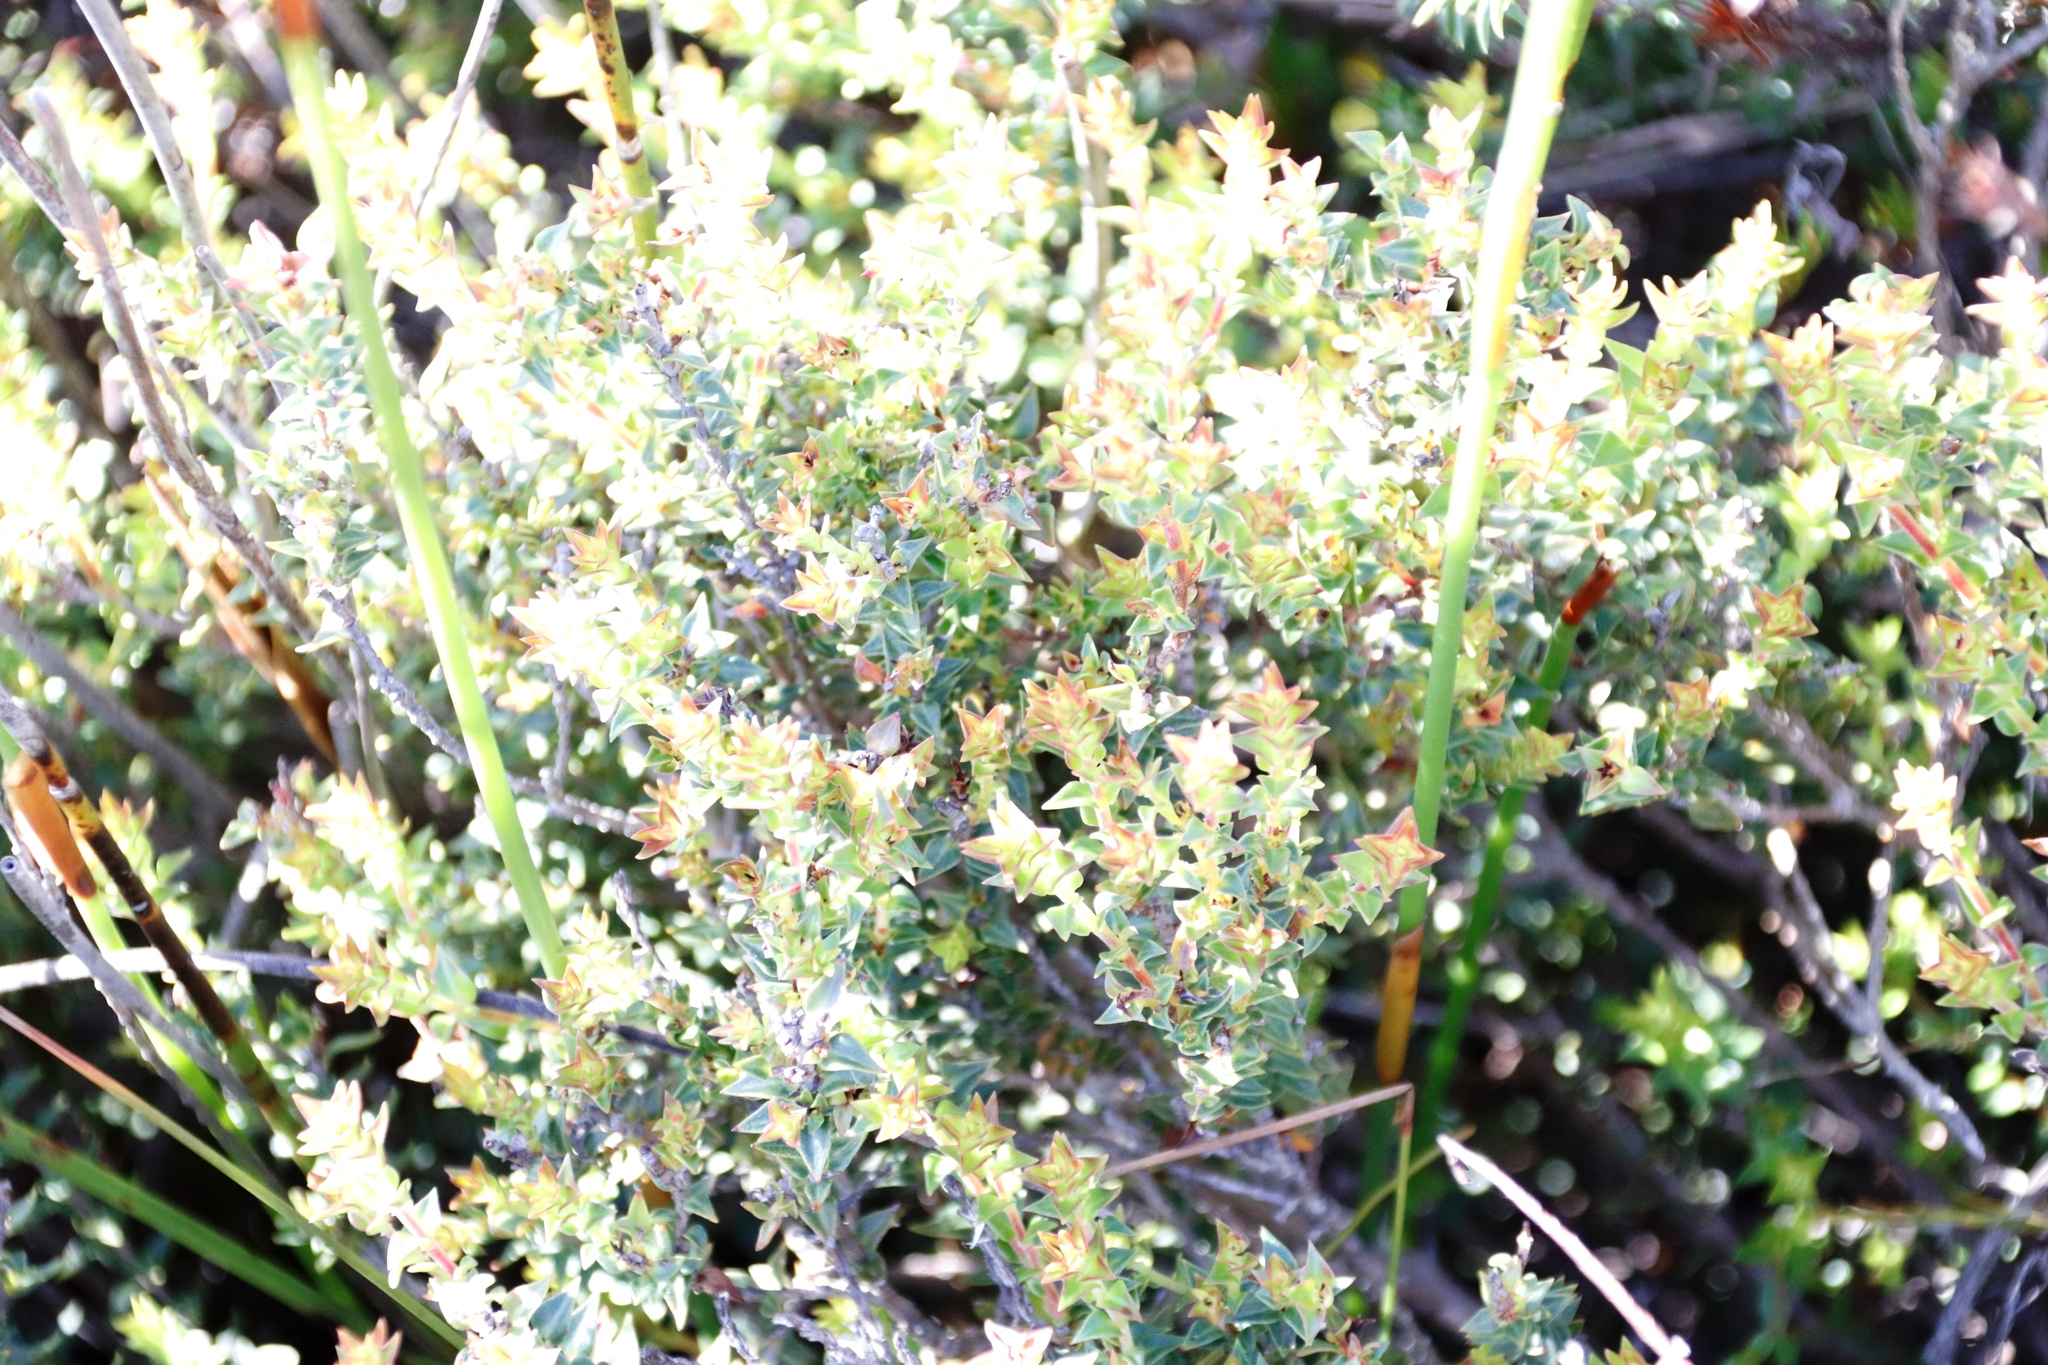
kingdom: Plantae
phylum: Tracheophyta
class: Magnoliopsida
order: Myrtales
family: Penaeaceae
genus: Penaea
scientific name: Penaea mucronata
